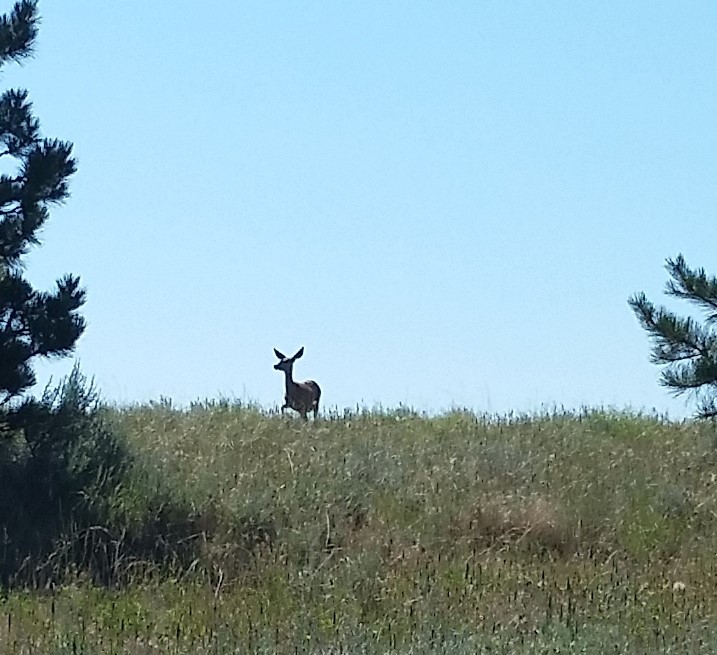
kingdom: Animalia
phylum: Chordata
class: Mammalia
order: Artiodactyla
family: Cervidae
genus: Odocoileus
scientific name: Odocoileus hemionus
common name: Mule deer
